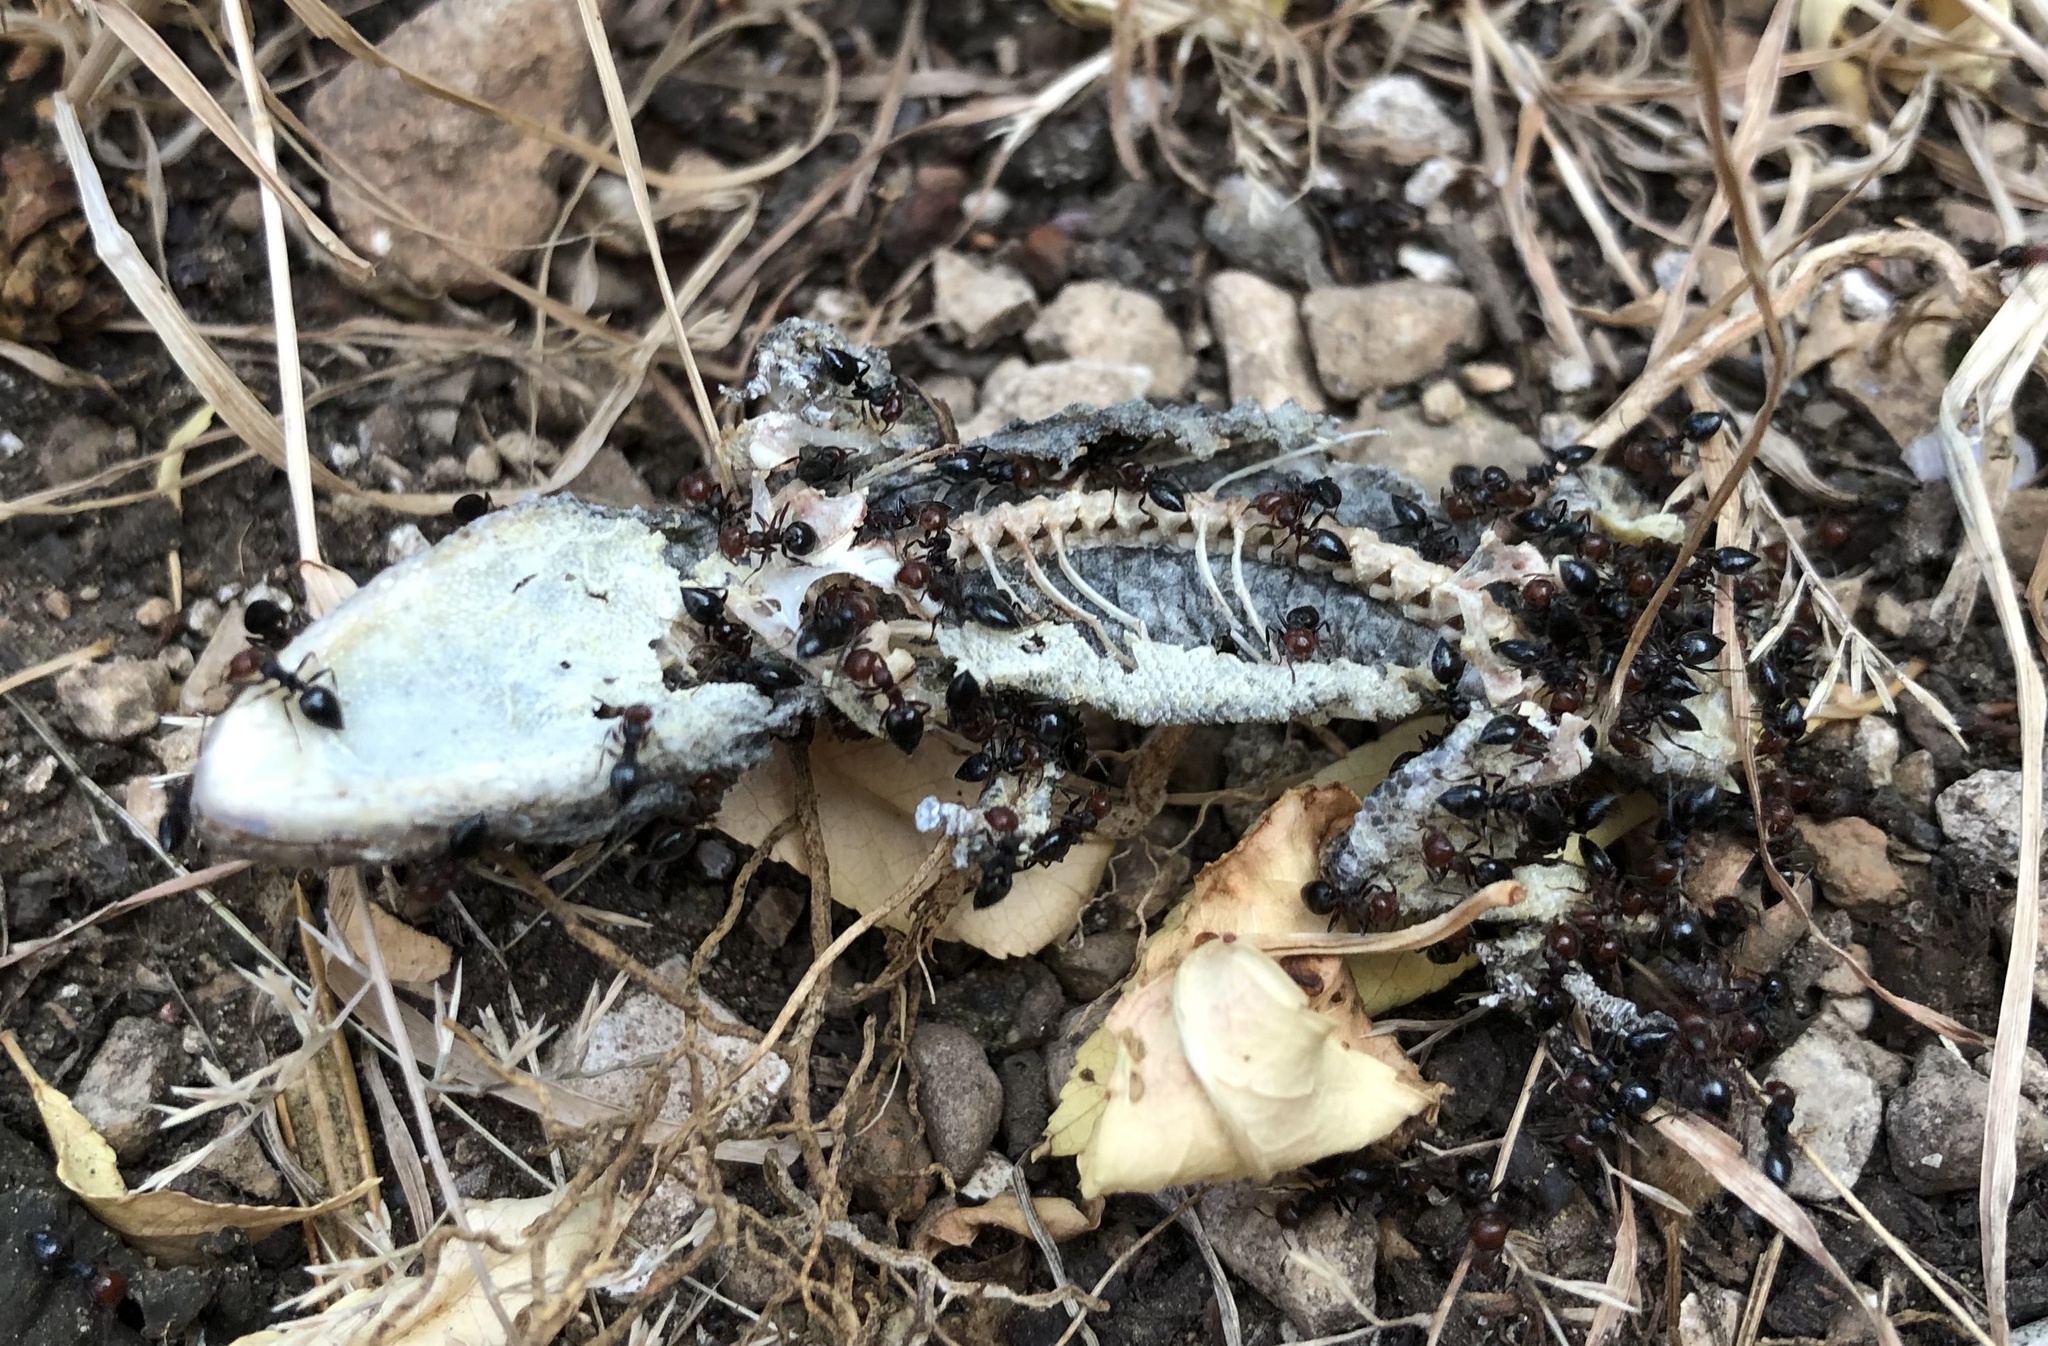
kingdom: Animalia
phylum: Chordata
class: Squamata
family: Phyllodactylidae
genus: Tarentola
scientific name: Tarentola mauritanica
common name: Moorish gecko
